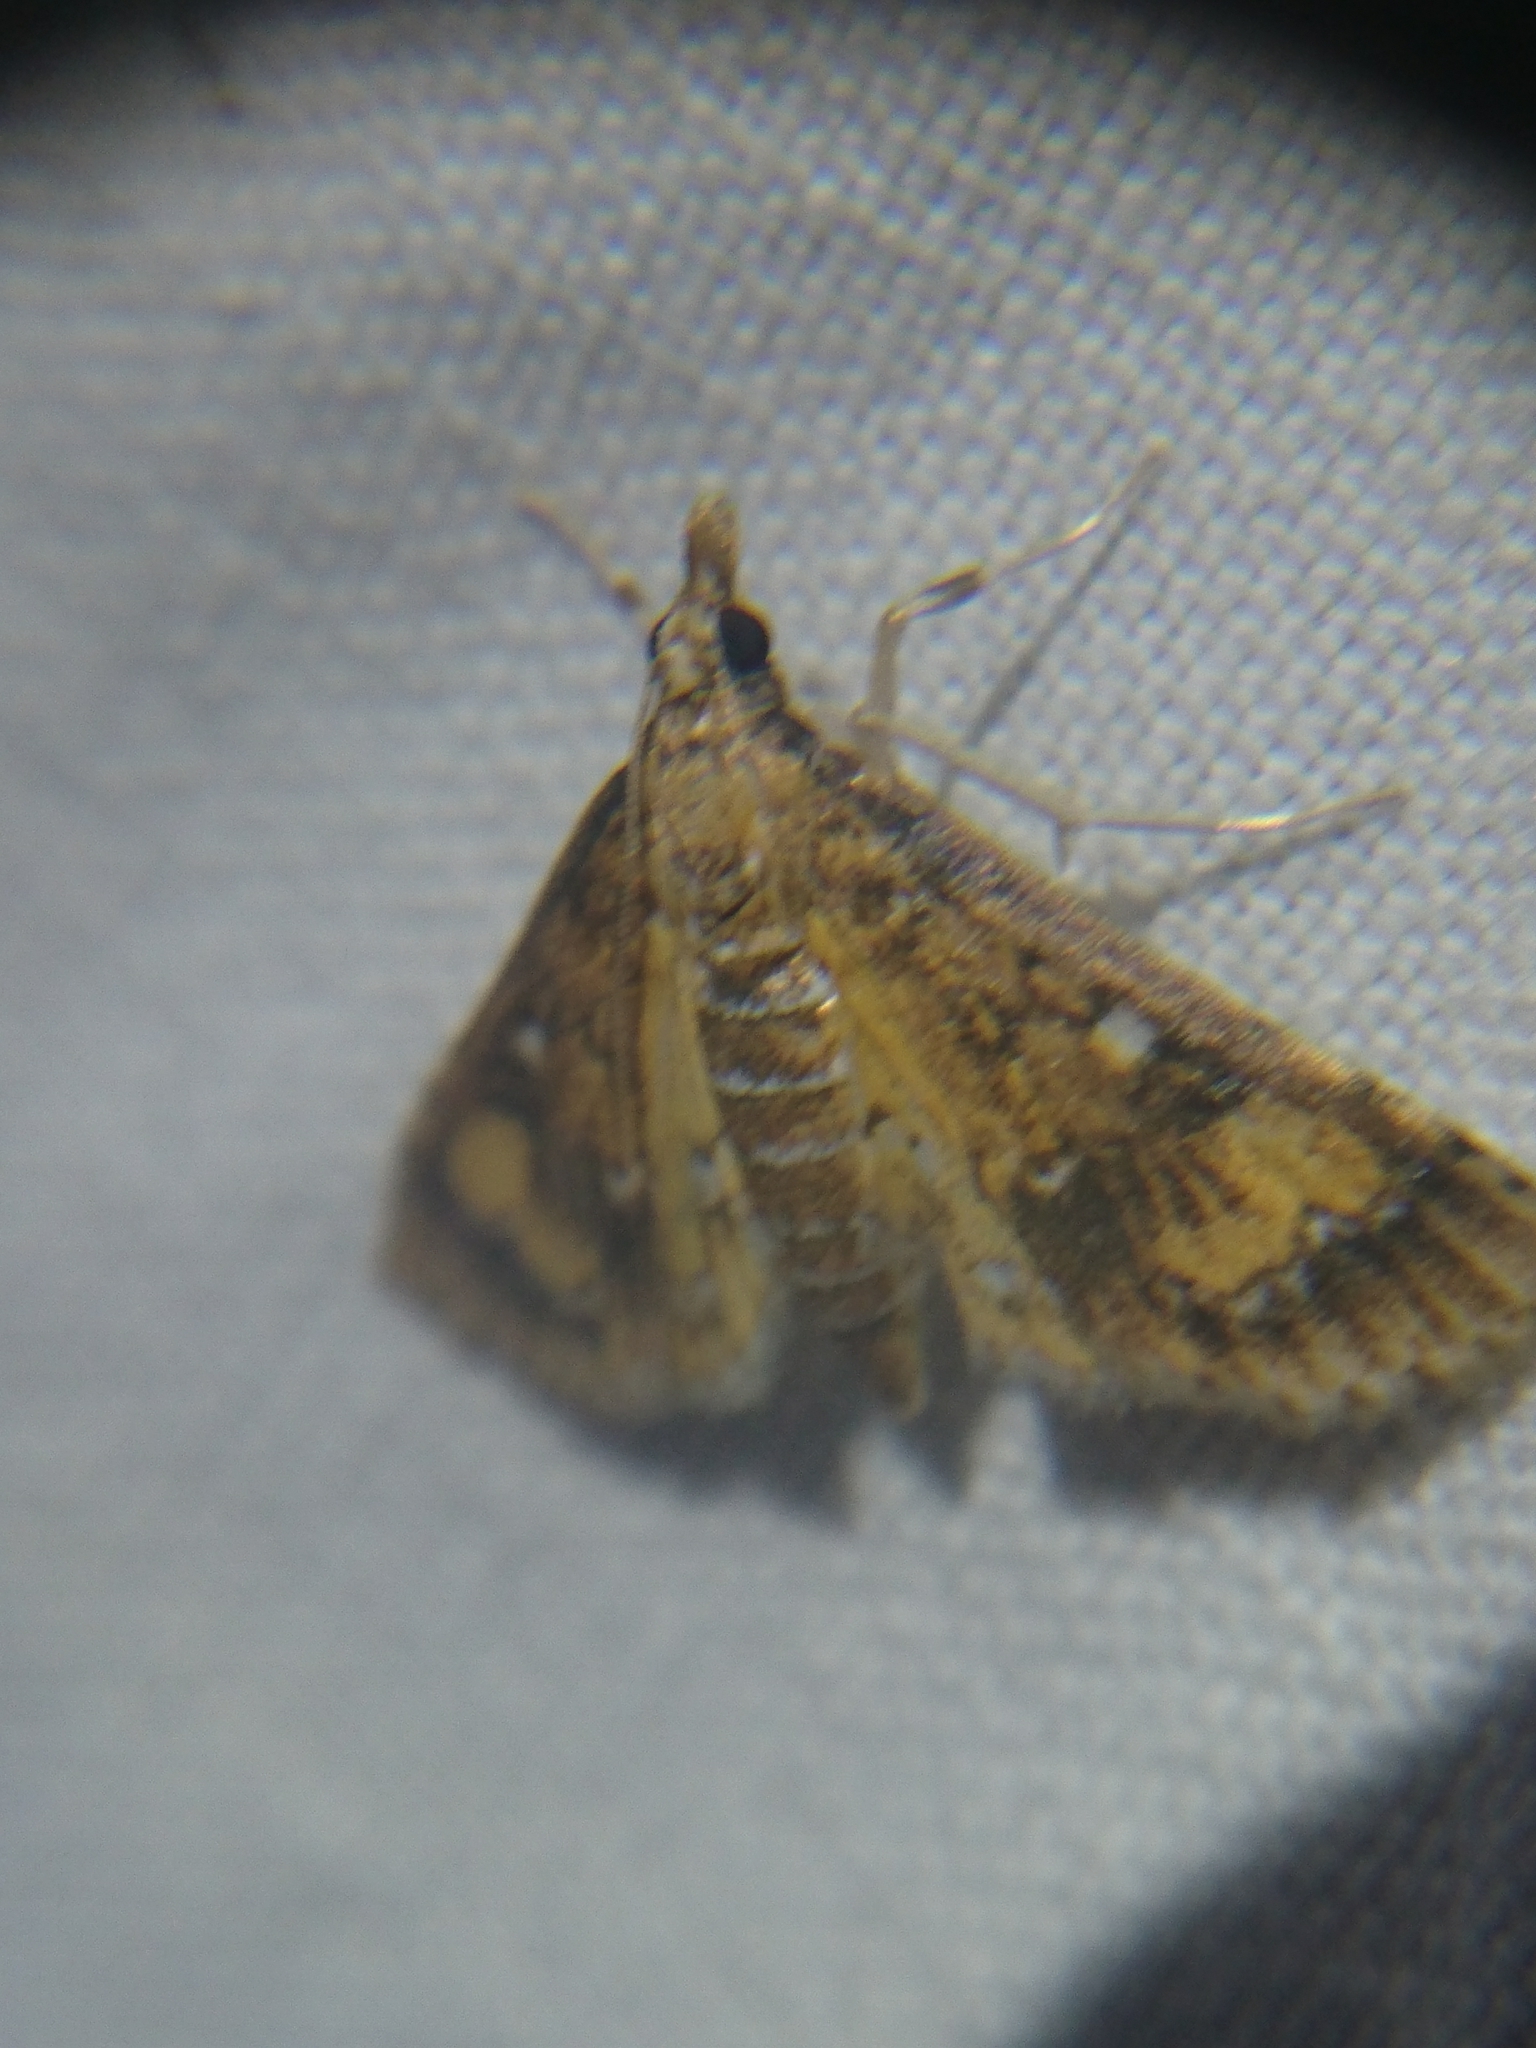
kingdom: Animalia
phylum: Arthropoda
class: Insecta
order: Lepidoptera
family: Crambidae
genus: Niphograpta
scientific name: Niphograpta albiguttalis
